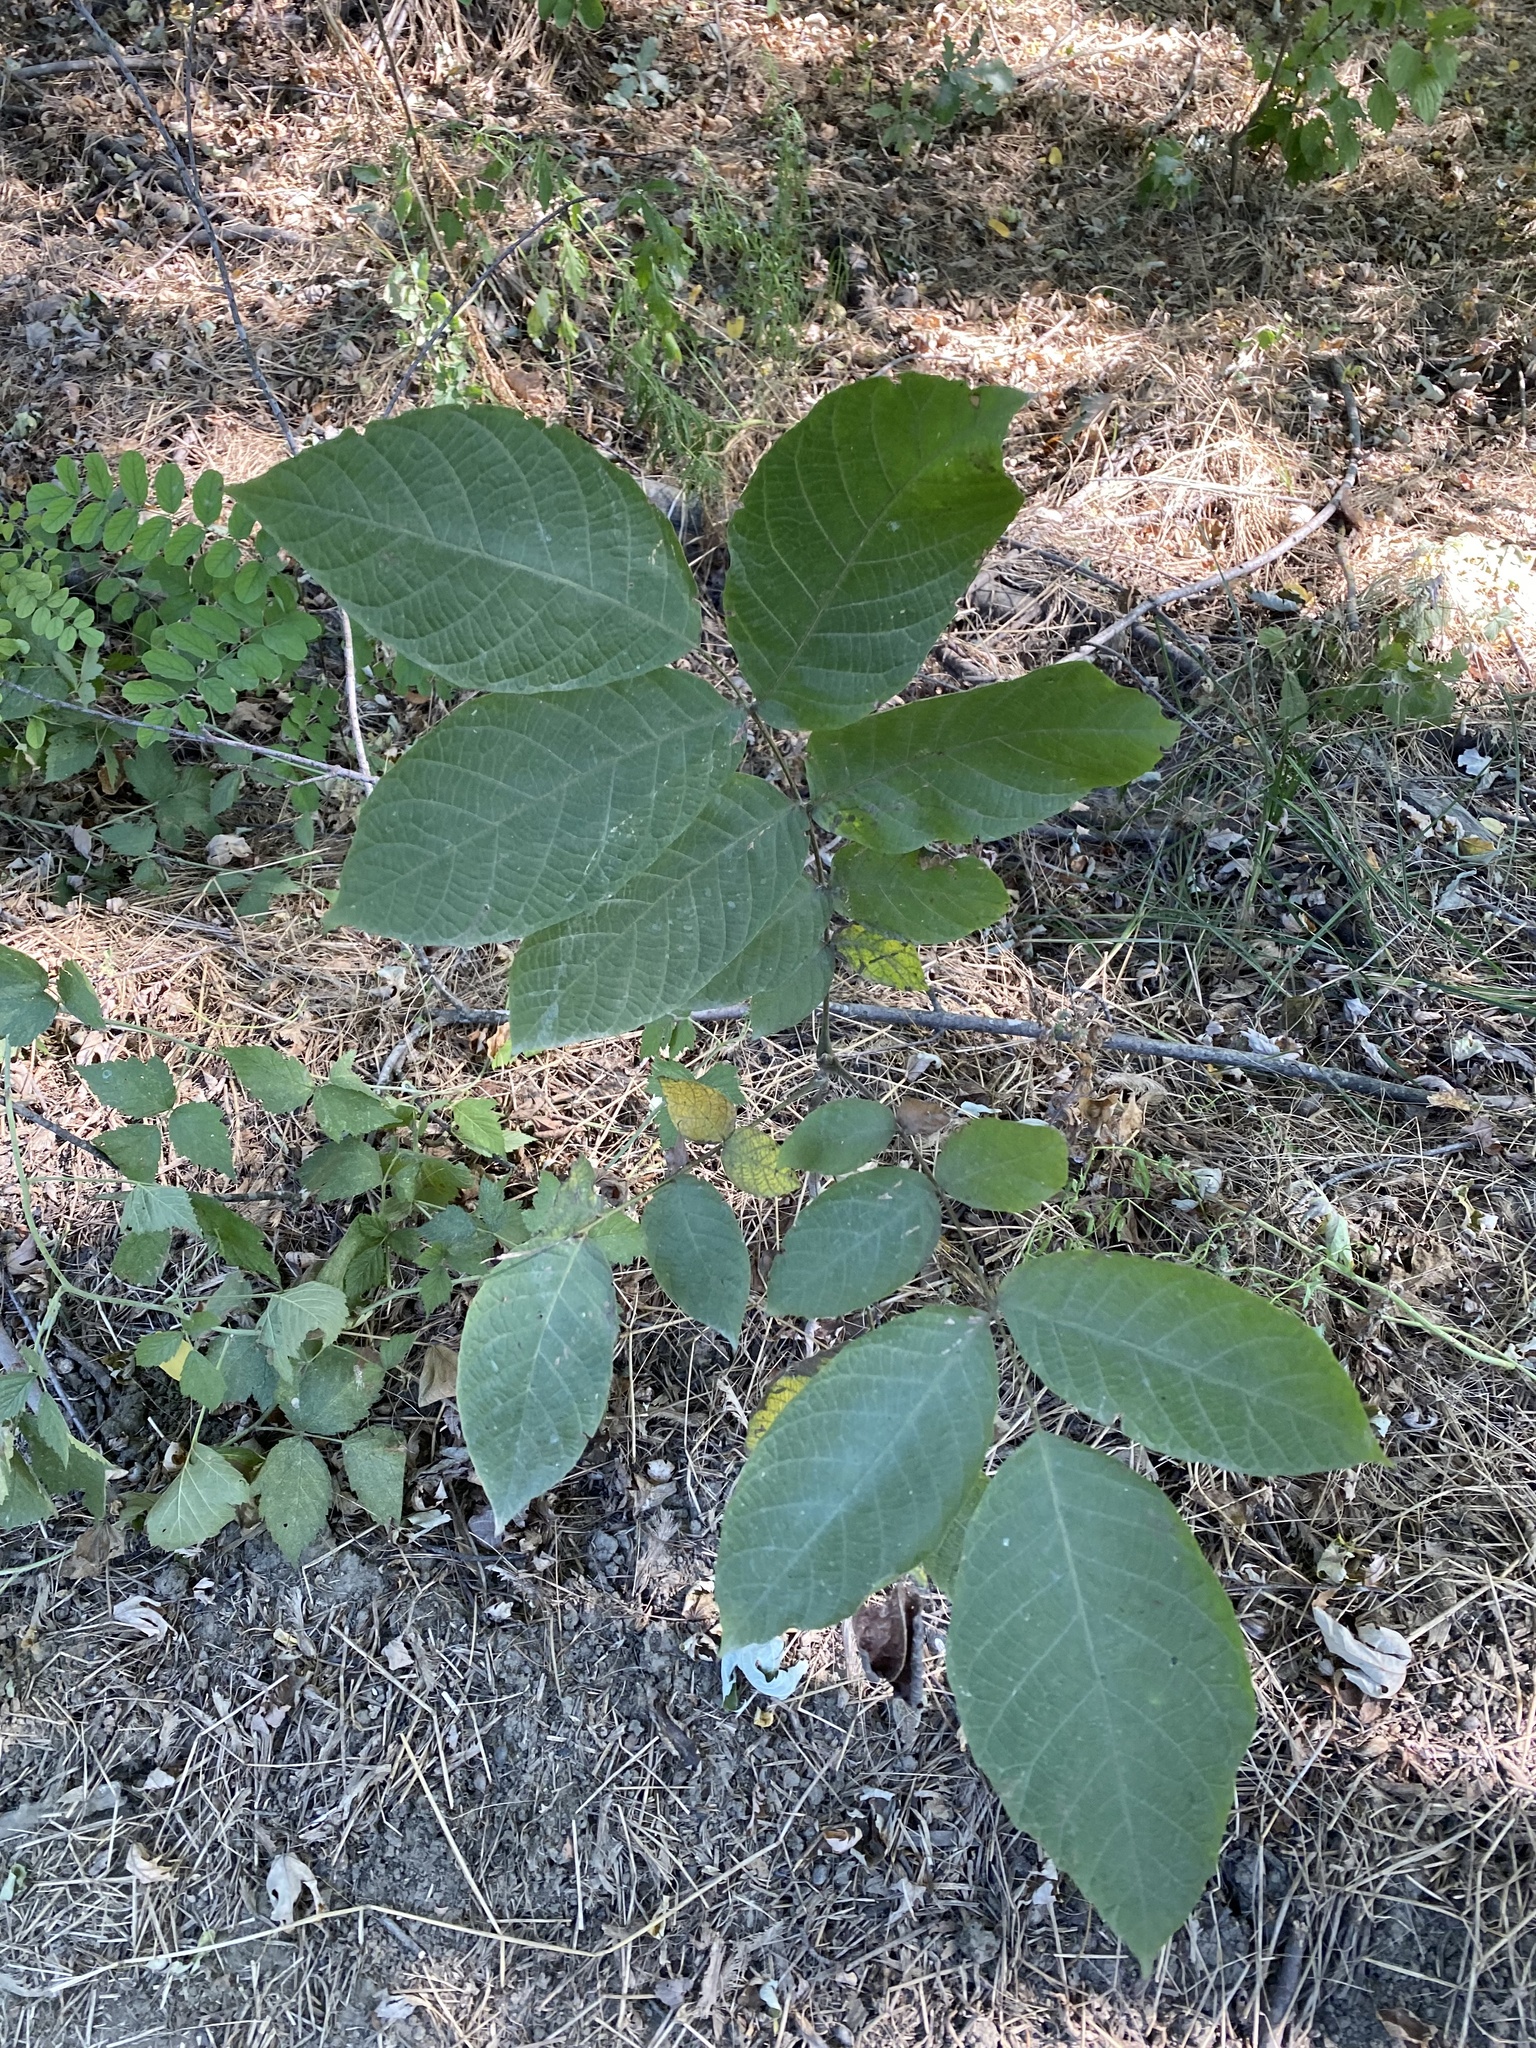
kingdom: Plantae
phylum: Tracheophyta
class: Magnoliopsida
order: Fagales
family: Juglandaceae
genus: Juglans
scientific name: Juglans regia
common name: Walnut
